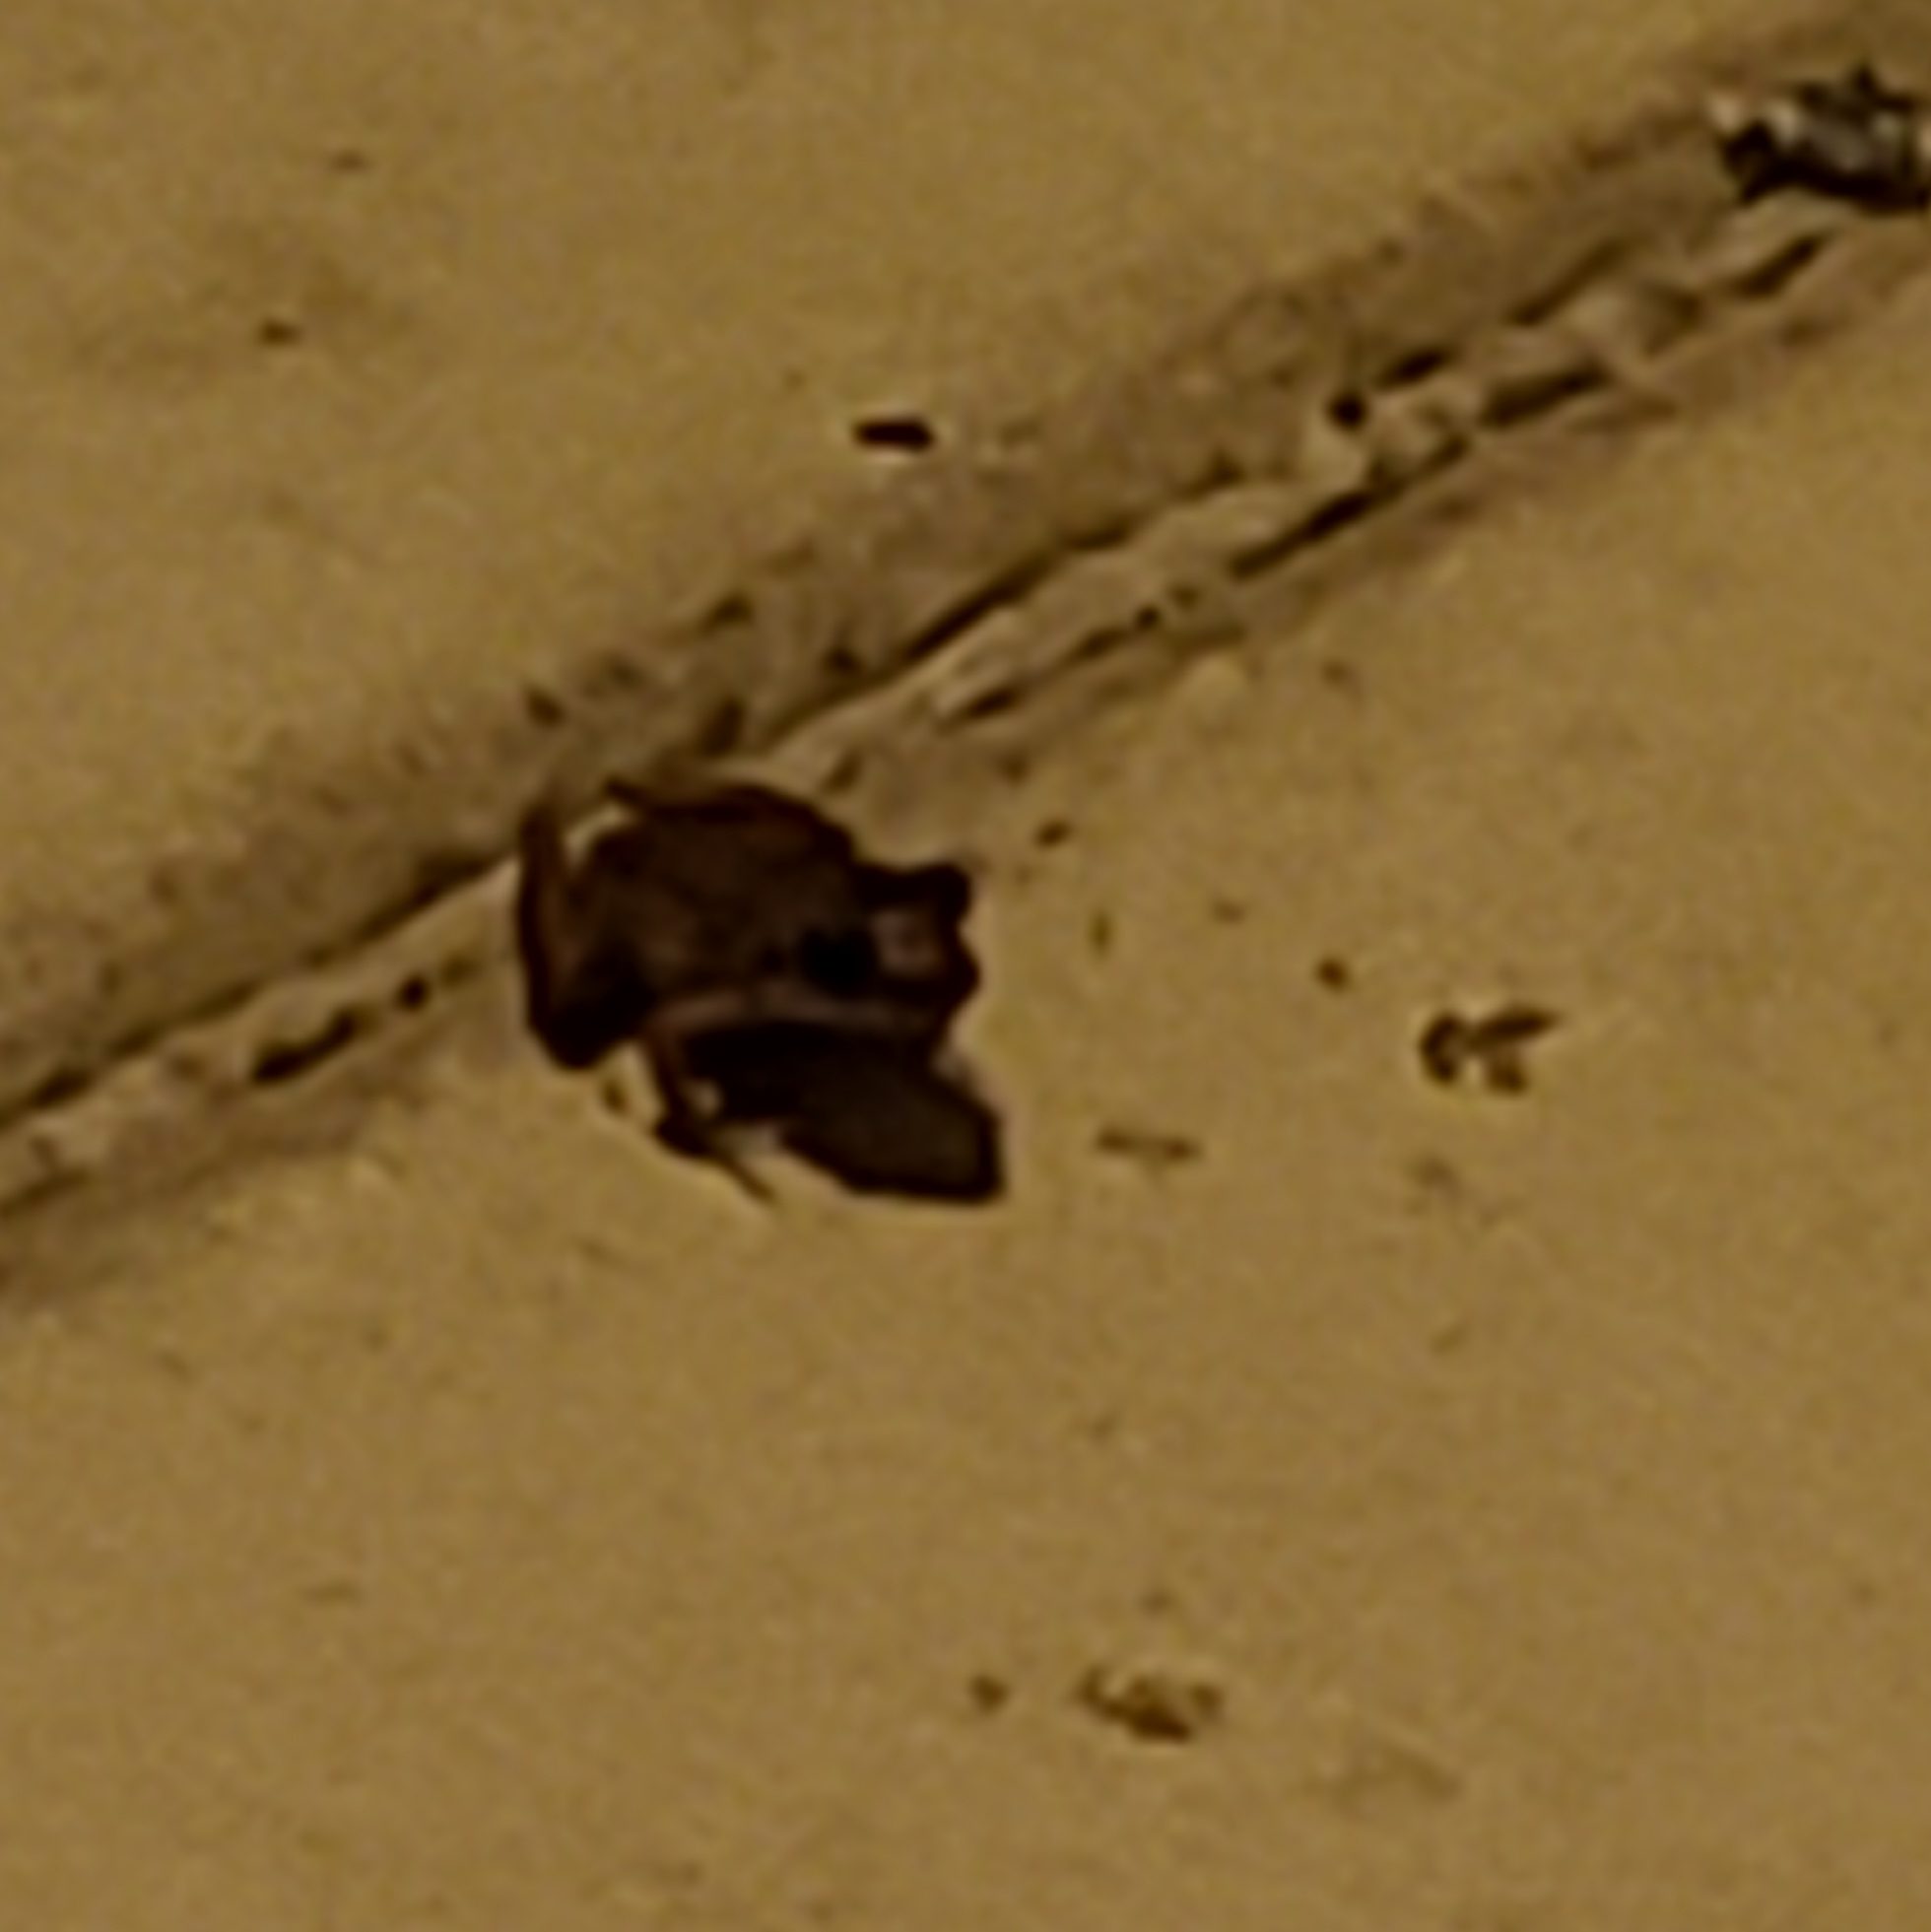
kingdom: Animalia
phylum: Chordata
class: Amphibia
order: Anura
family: Eleutherodactylidae
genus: Eleutherodactylus
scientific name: Eleutherodactylus planirostris
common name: Greenhouse frog
